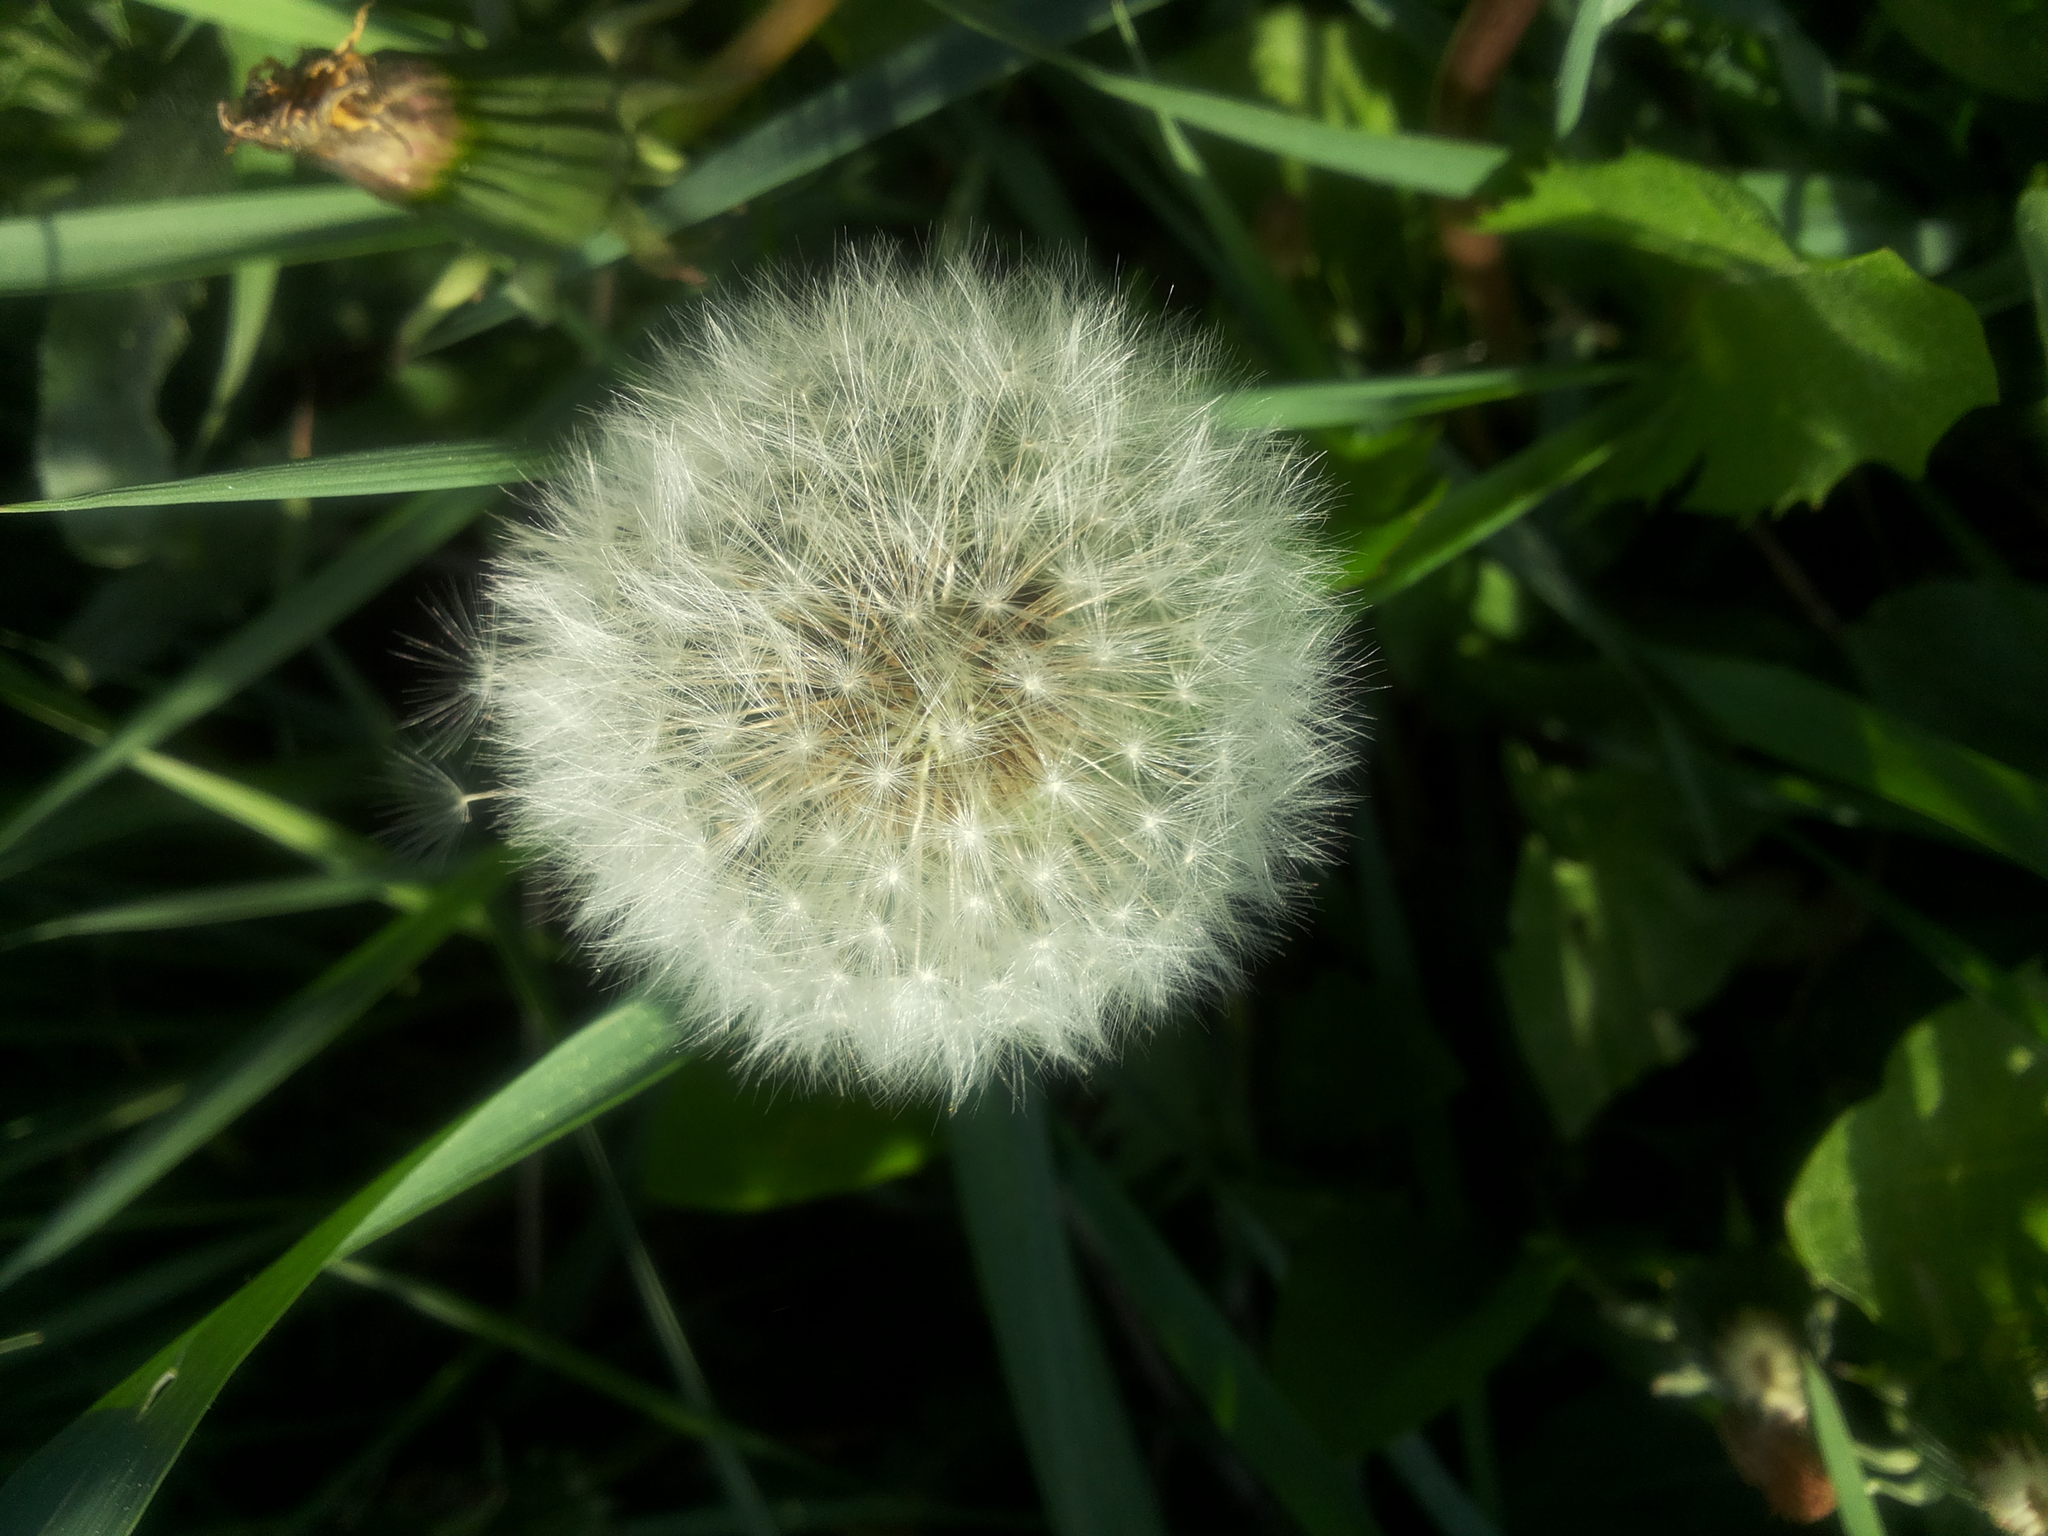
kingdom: Plantae
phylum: Tracheophyta
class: Magnoliopsida
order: Asterales
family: Asteraceae
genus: Taraxacum
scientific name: Taraxacum officinale
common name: Common dandelion
